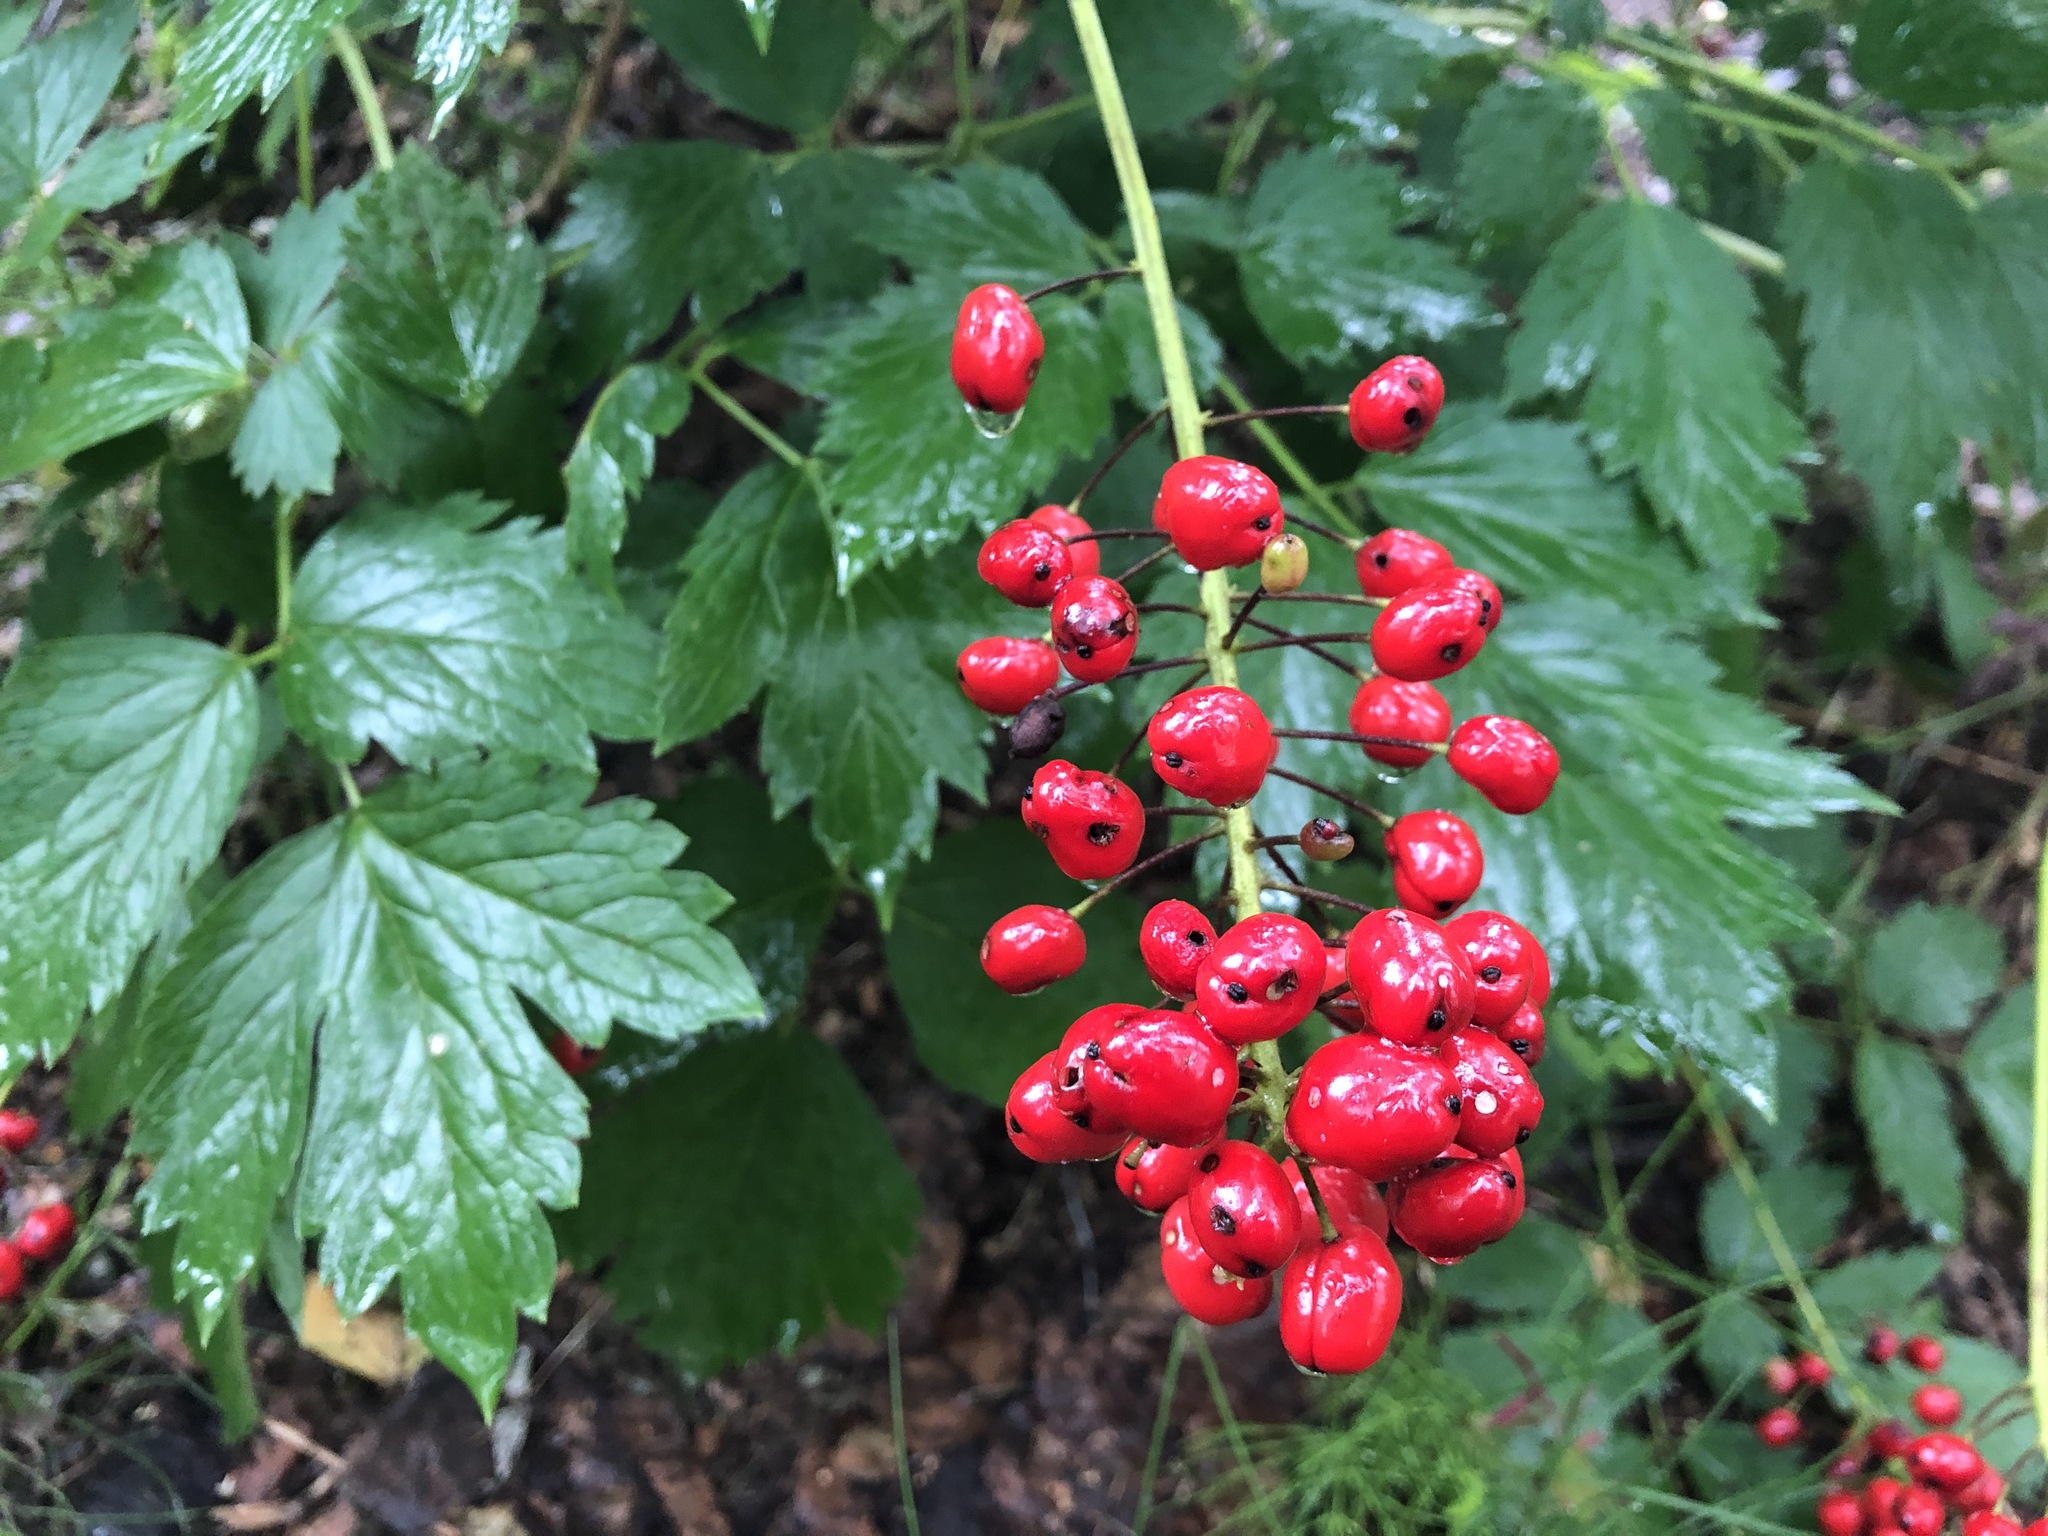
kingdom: Plantae
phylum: Tracheophyta
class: Magnoliopsida
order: Ranunculales
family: Ranunculaceae
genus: Actaea
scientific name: Actaea rubra
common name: Red baneberry
